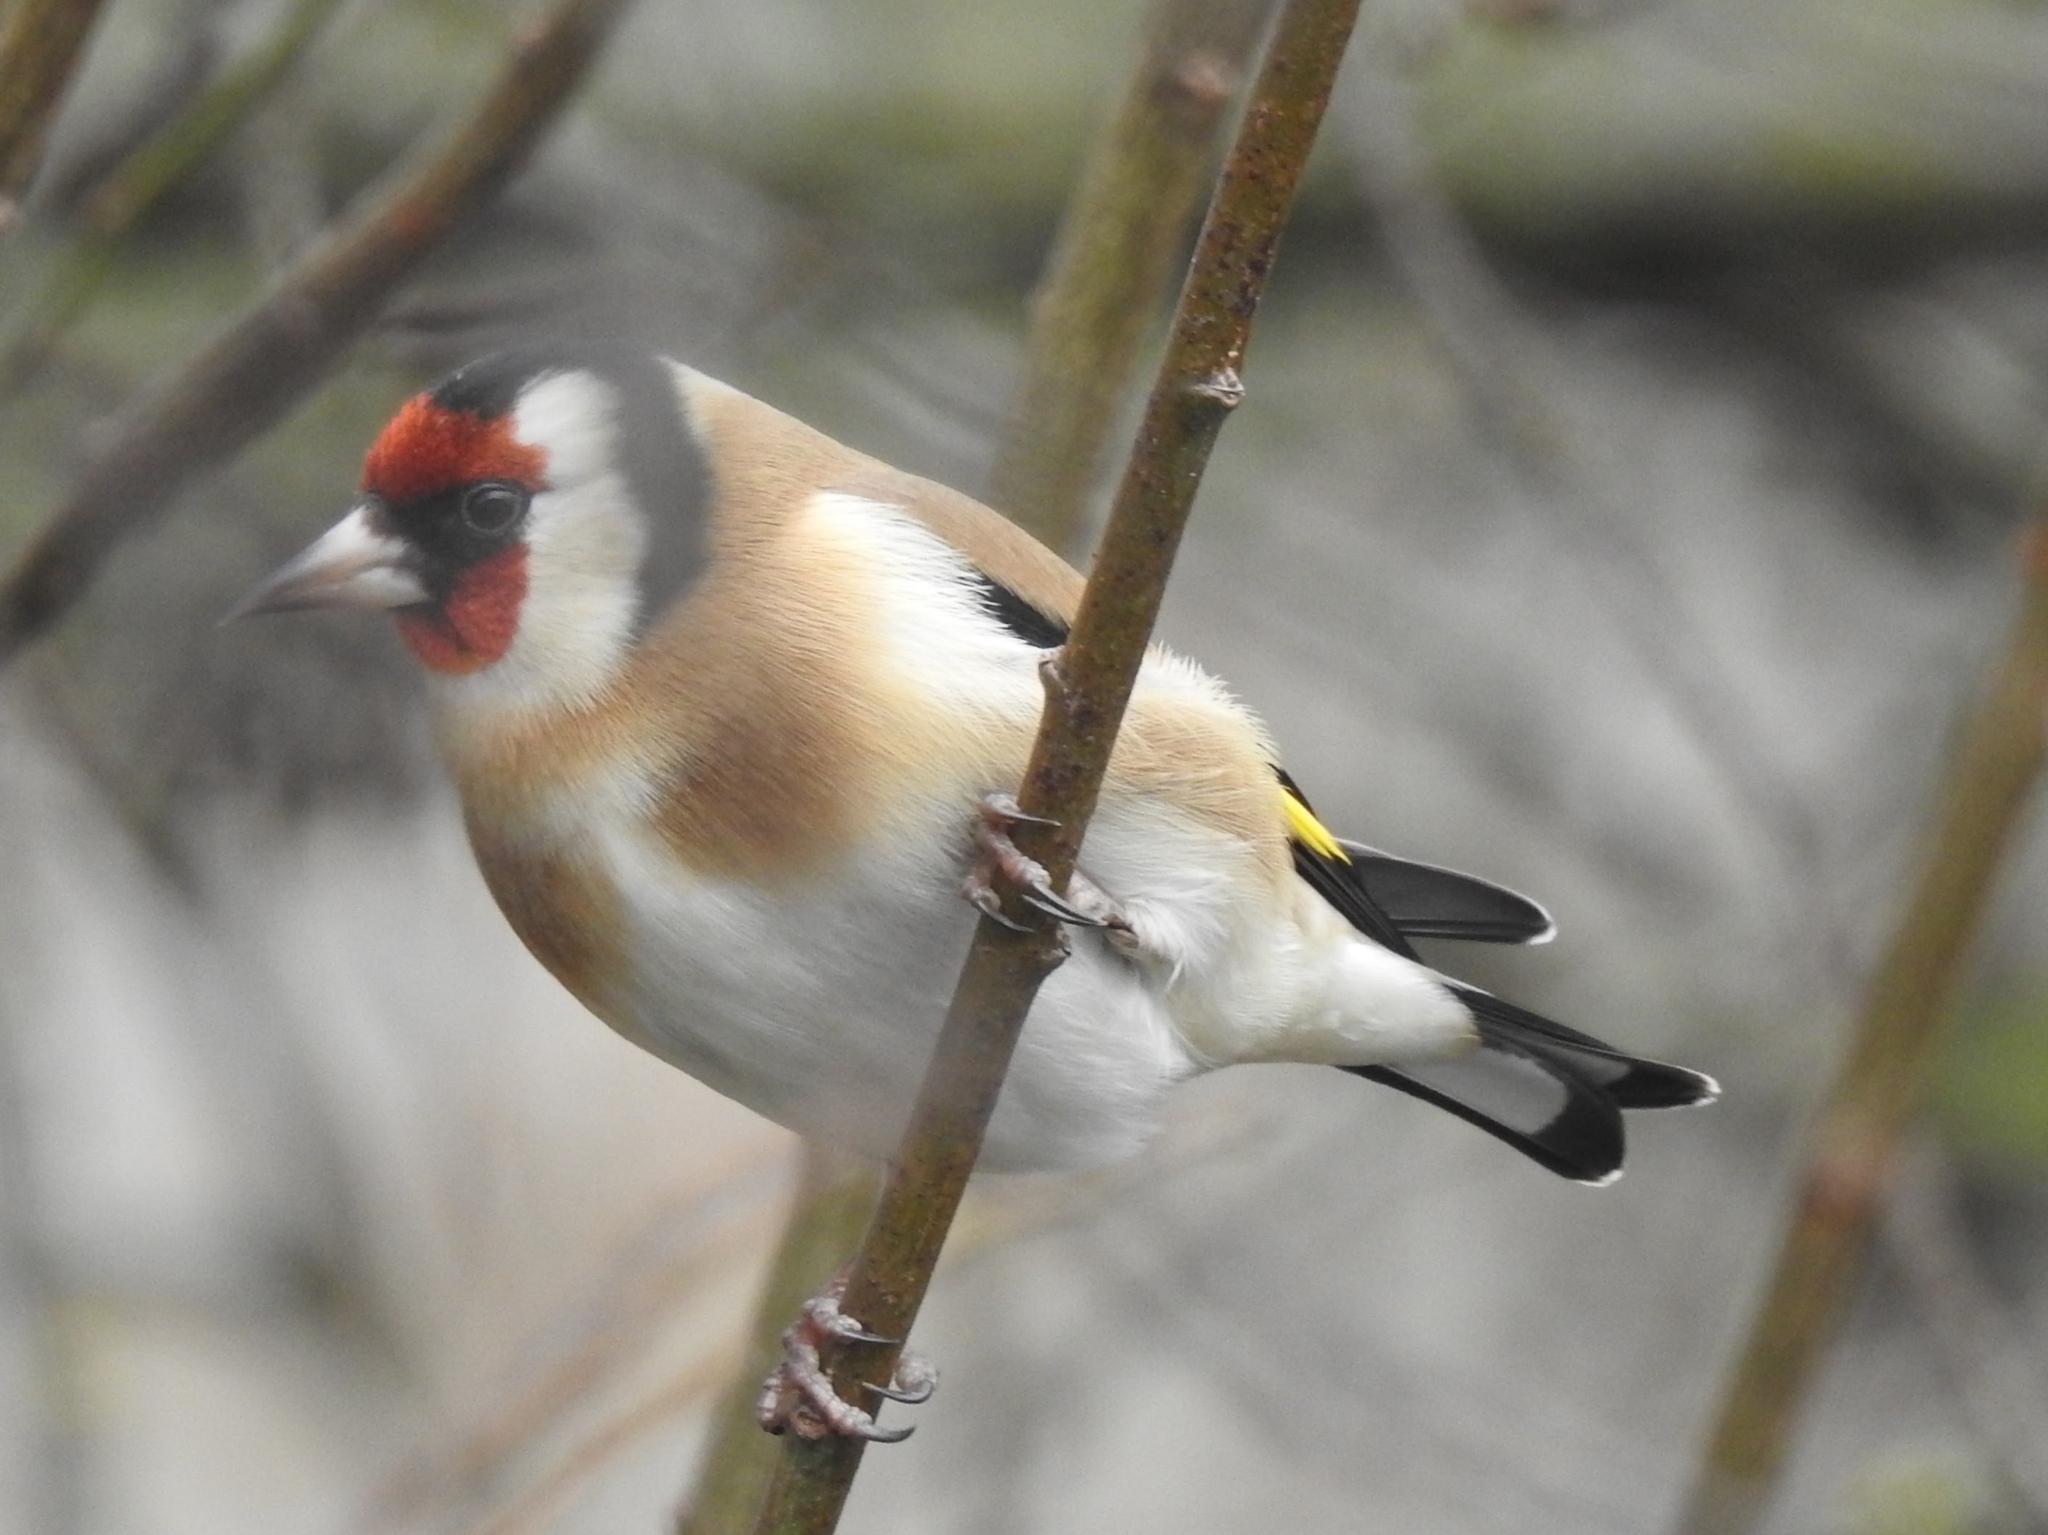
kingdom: Animalia
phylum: Chordata
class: Aves
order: Passeriformes
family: Fringillidae
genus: Carduelis
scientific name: Carduelis carduelis
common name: European goldfinch
